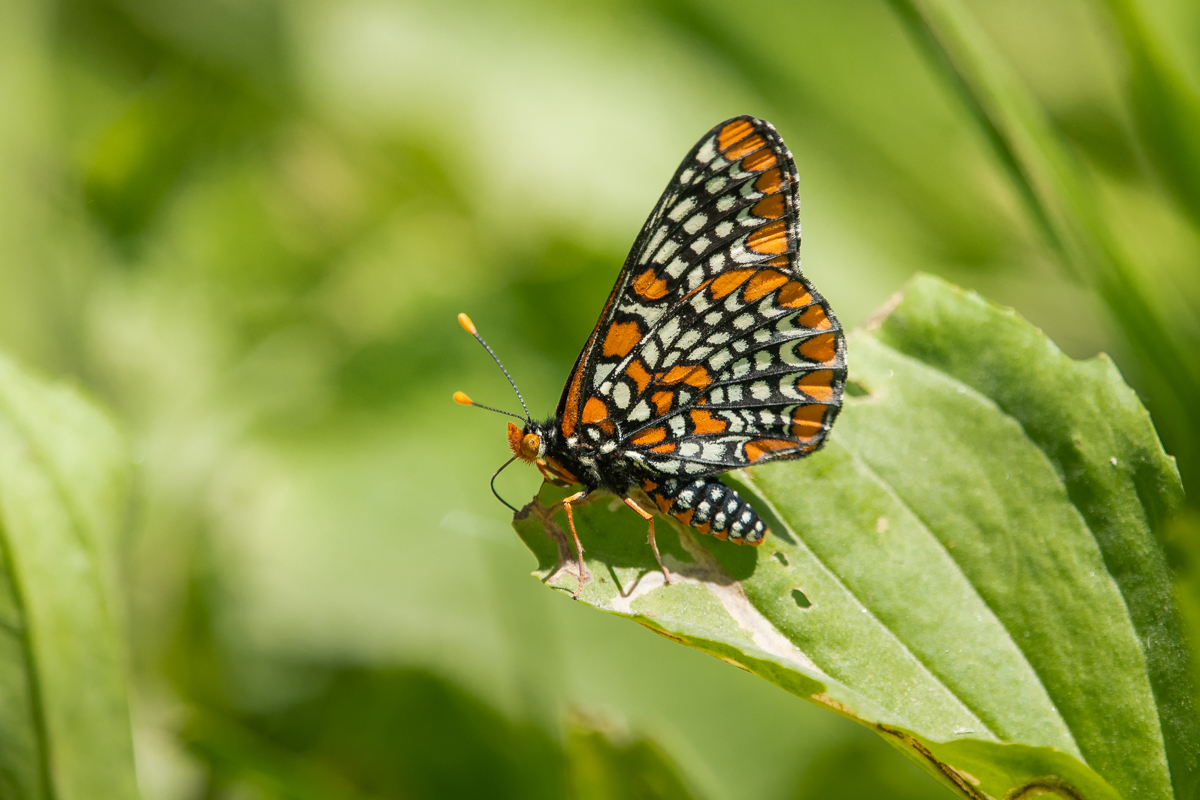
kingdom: Animalia
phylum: Arthropoda
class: Insecta
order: Lepidoptera
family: Nymphalidae
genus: Euphydryas
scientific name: Euphydryas phaeton
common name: Baltimore checkerspot
